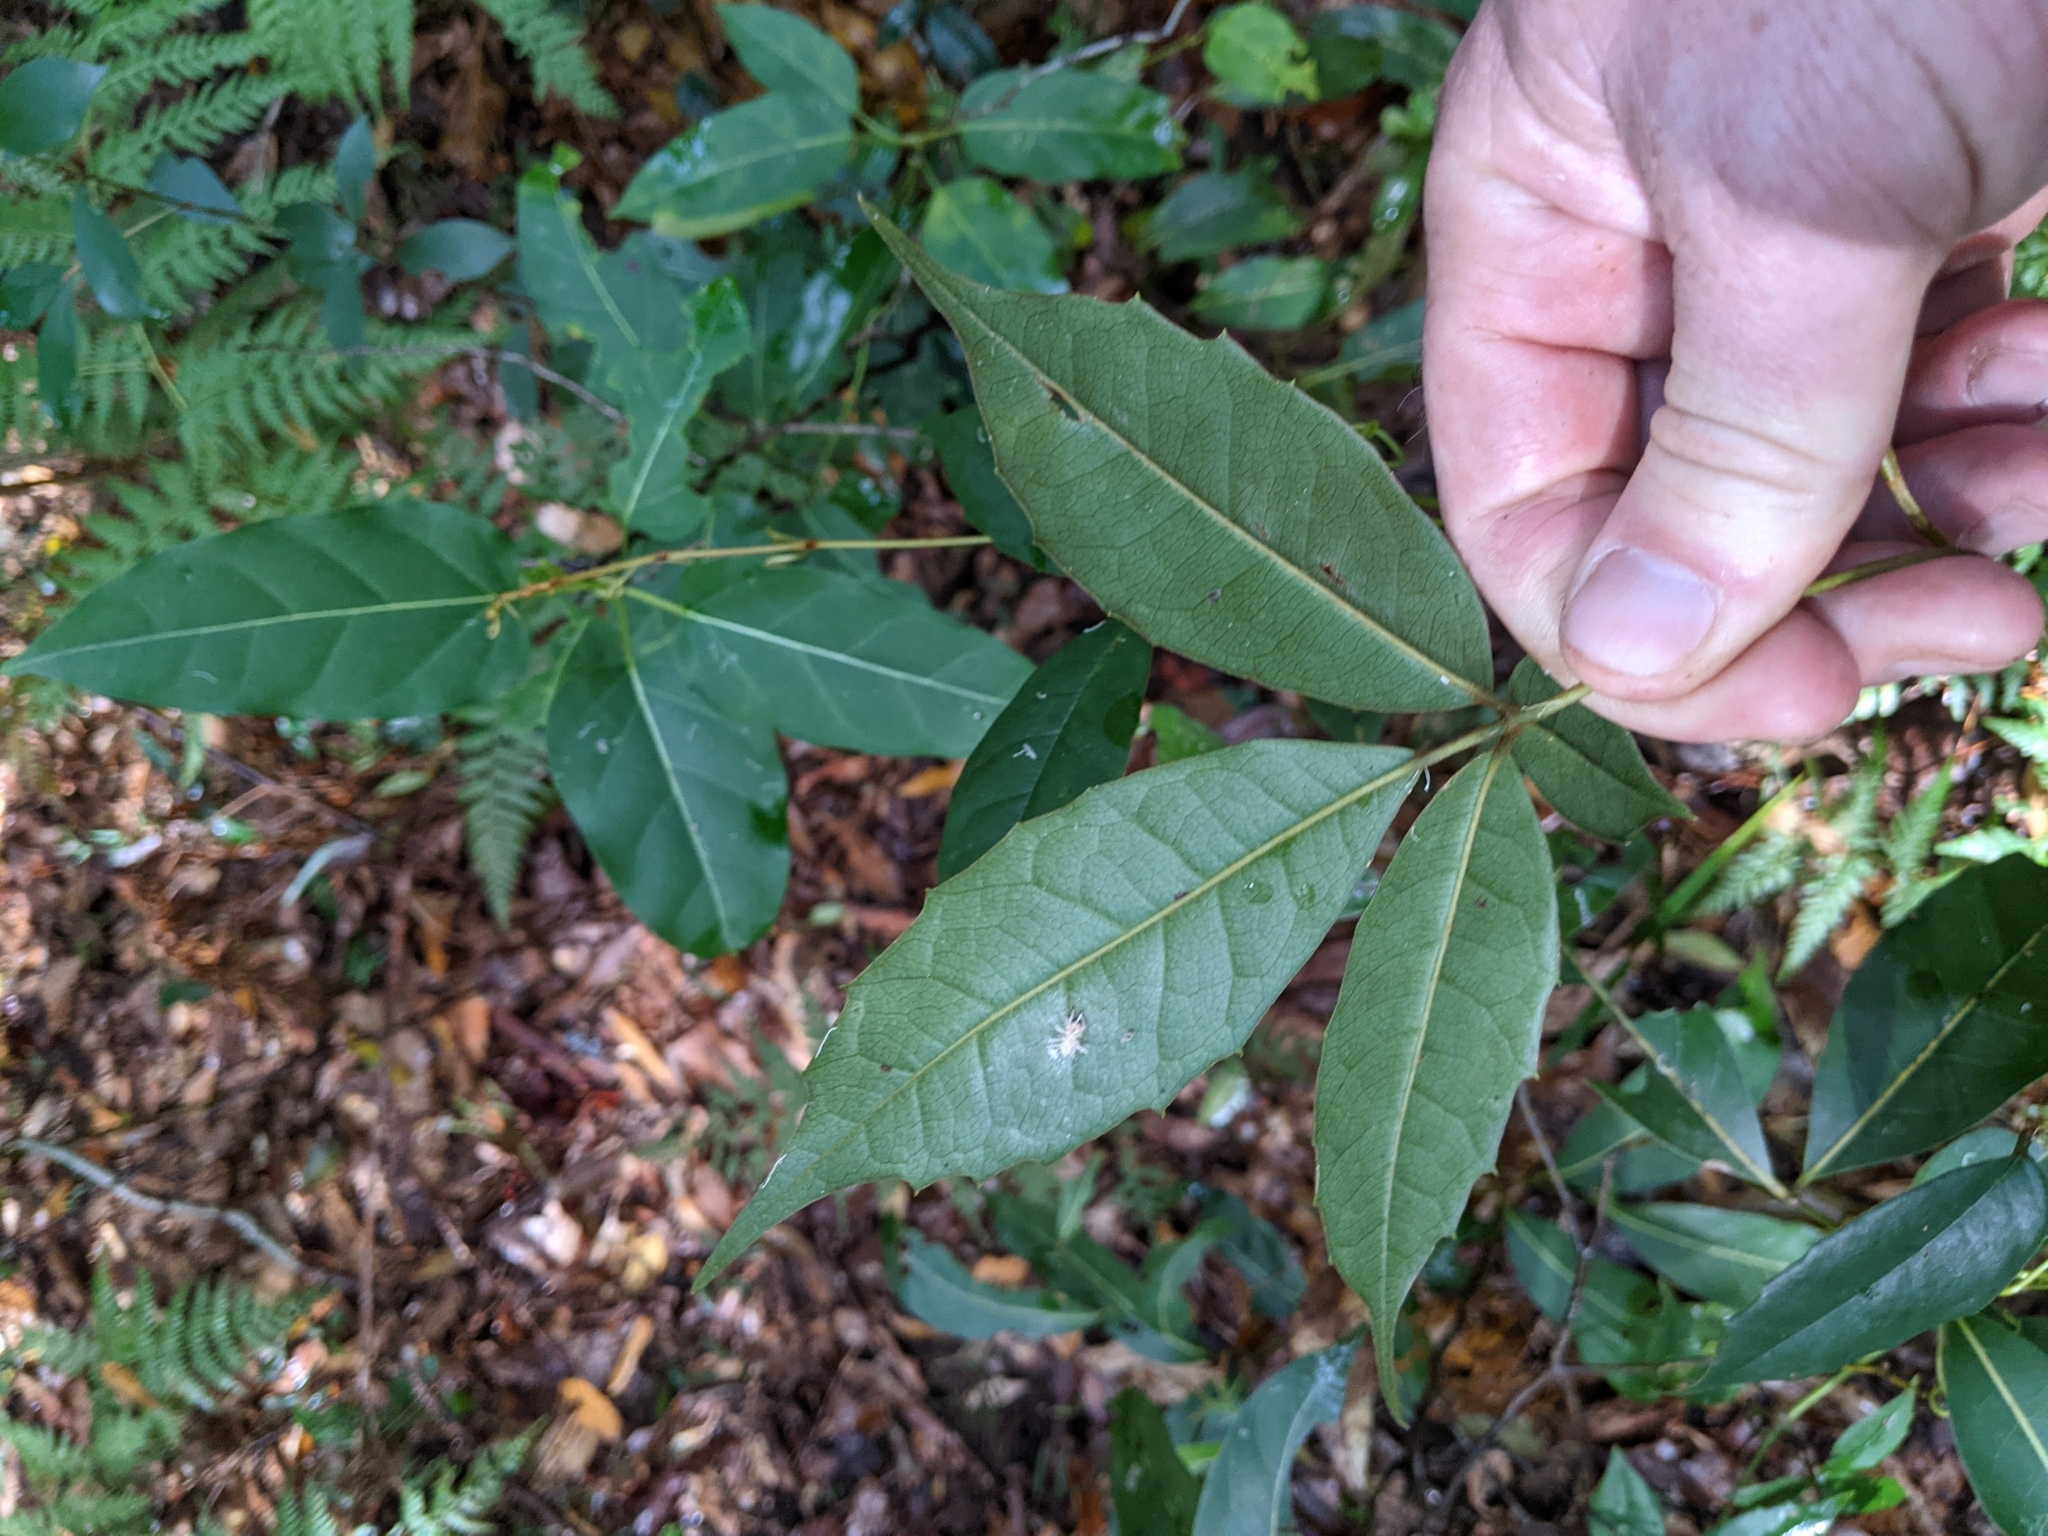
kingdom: Plantae
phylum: Tracheophyta
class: Magnoliopsida
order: Vitales
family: Vitaceae
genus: Nothocissus
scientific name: Nothocissus hypoglauca
